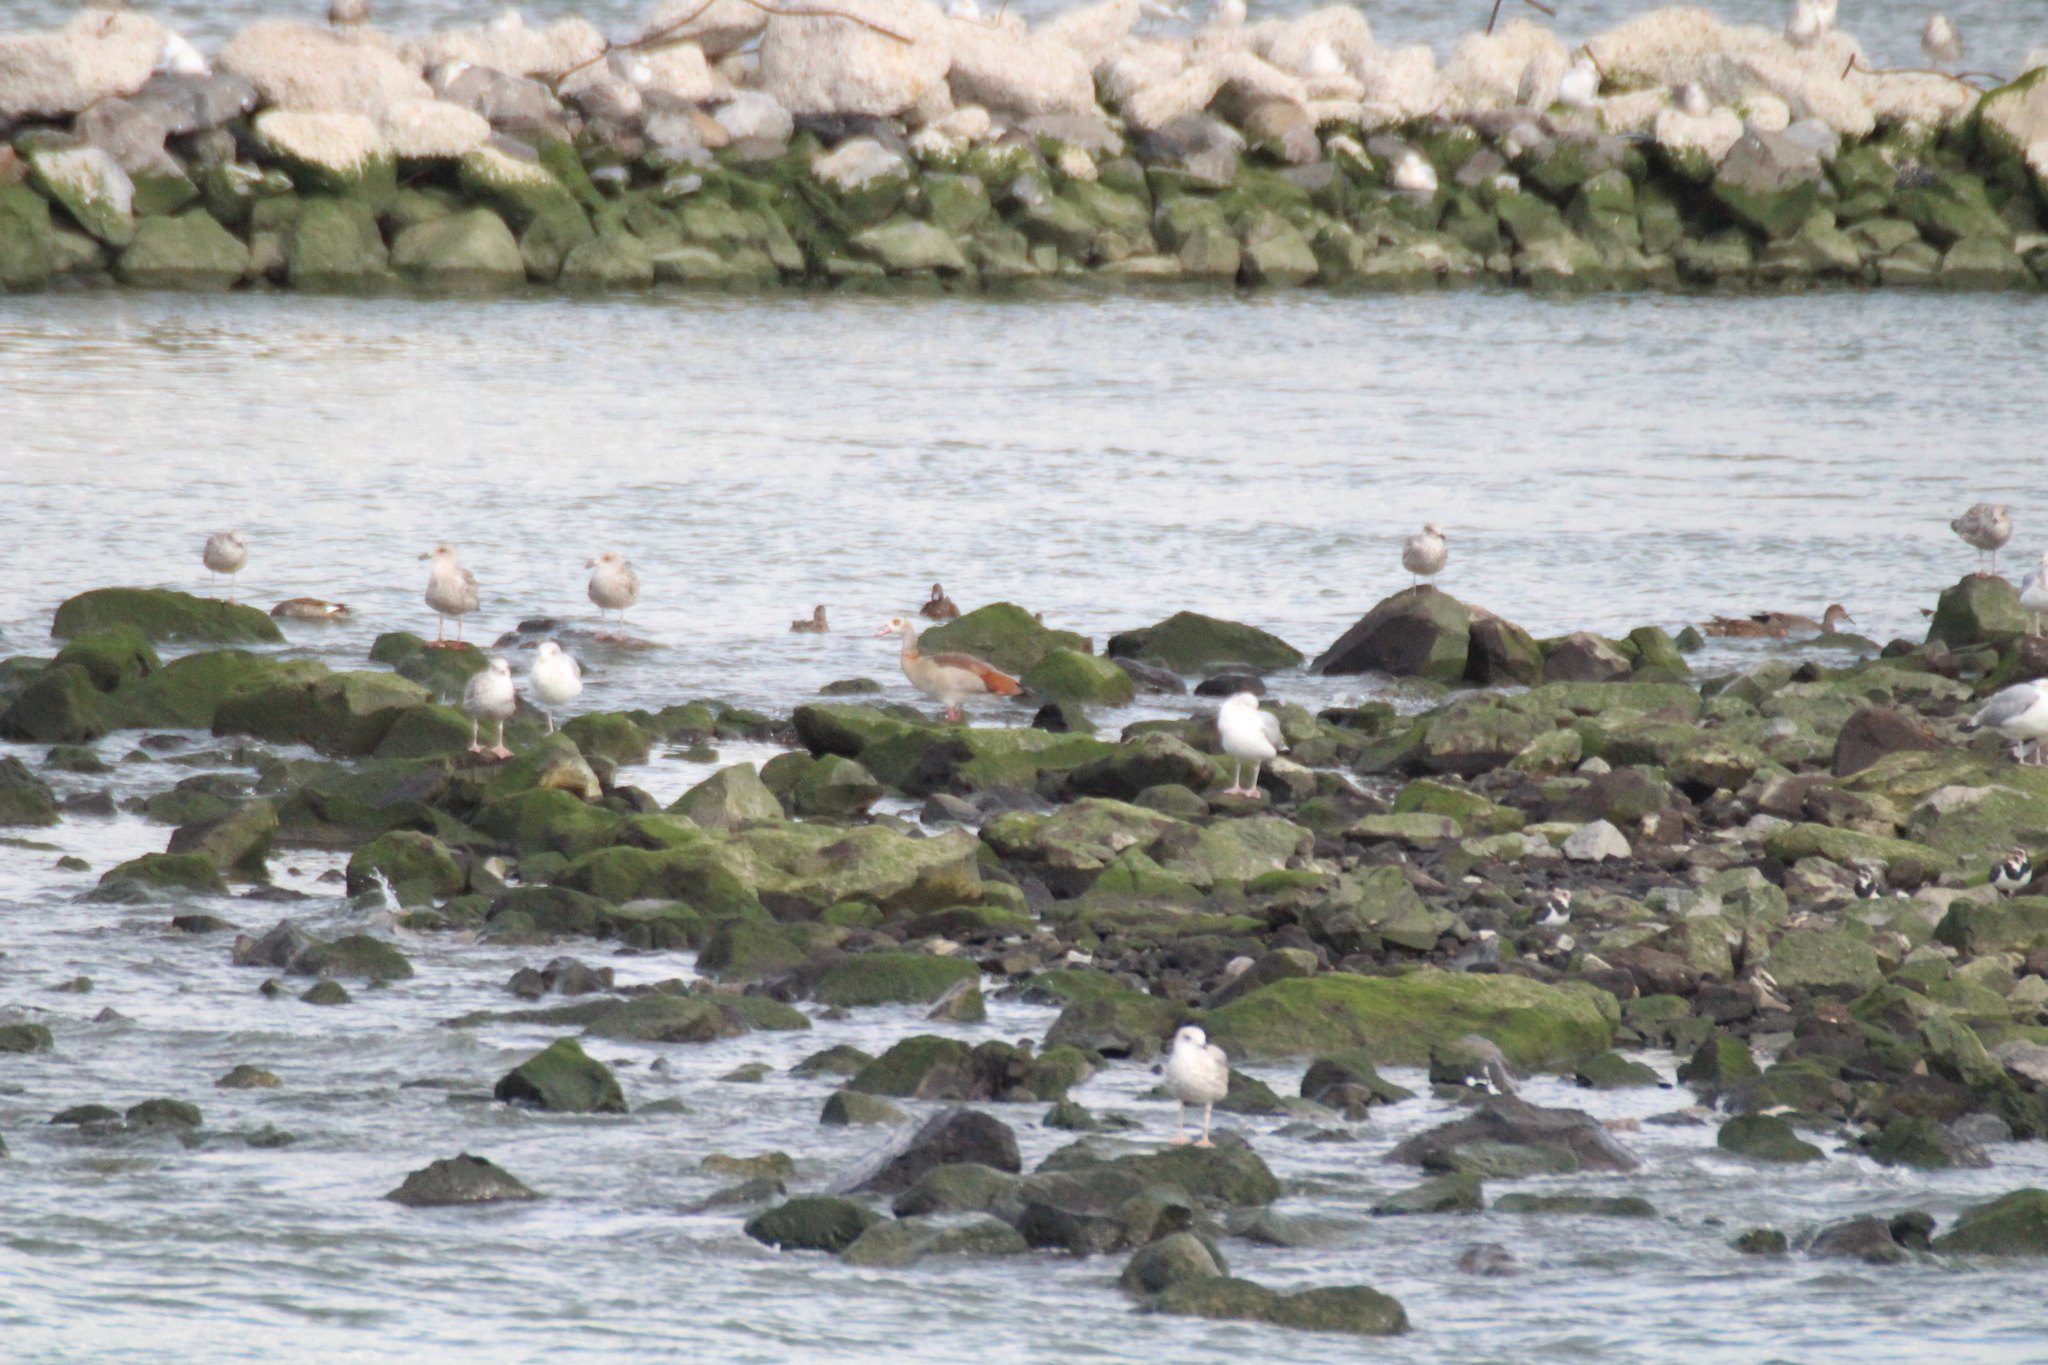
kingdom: Animalia
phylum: Chordata
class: Aves
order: Anseriformes
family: Anatidae
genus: Alopochen
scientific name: Alopochen aegyptiaca
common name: Egyptian goose
